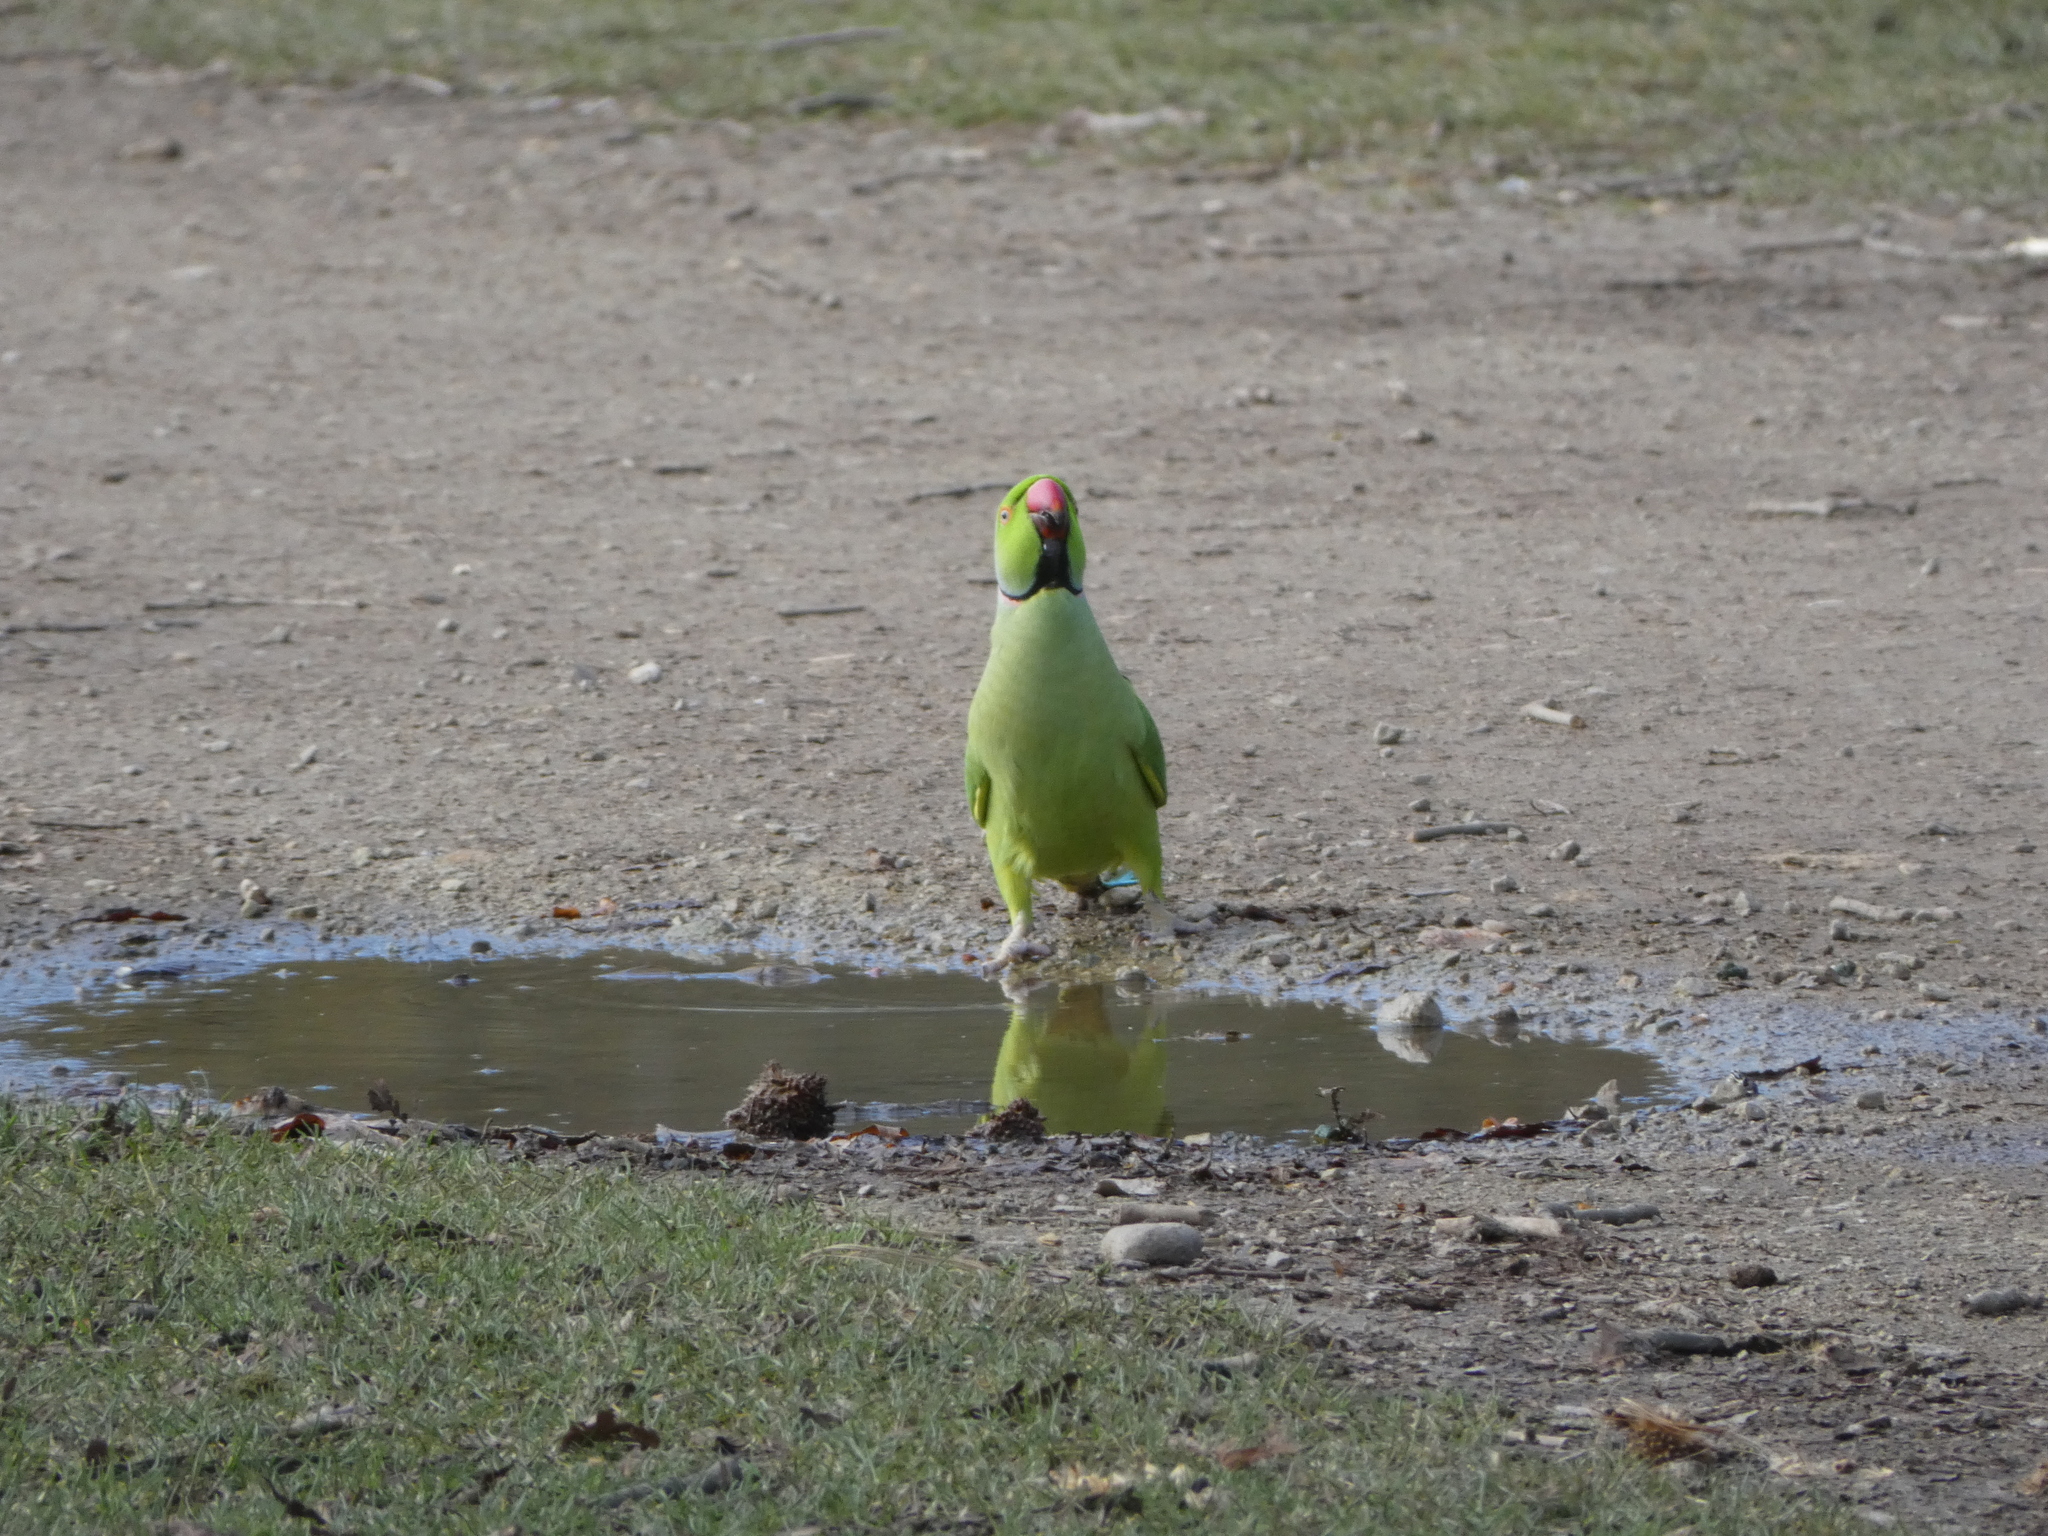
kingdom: Animalia
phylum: Chordata
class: Aves
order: Psittaciformes
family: Psittacidae
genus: Psittacula
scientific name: Psittacula krameri
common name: Rose-ringed parakeet
